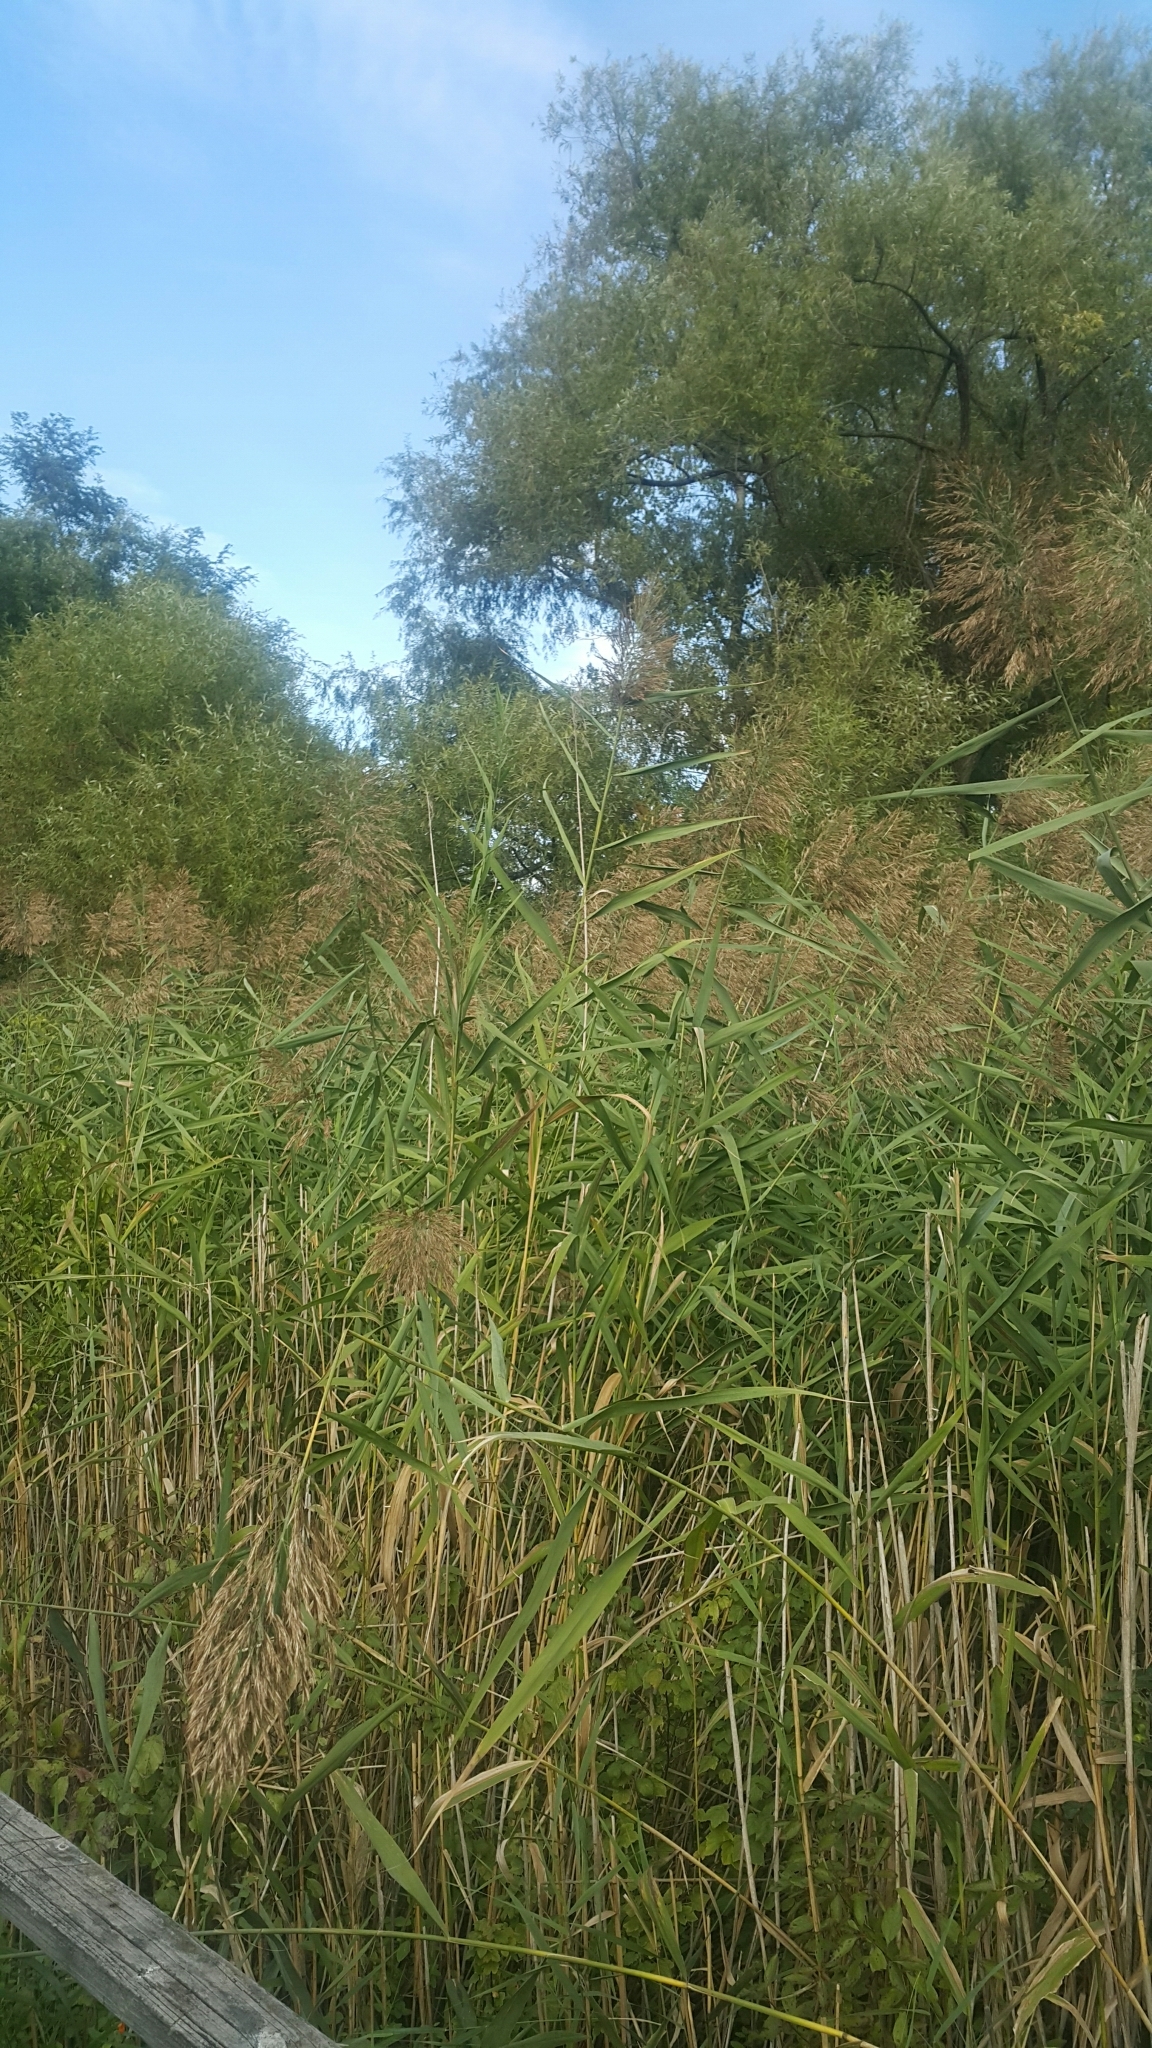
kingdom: Plantae
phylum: Tracheophyta
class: Liliopsida
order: Poales
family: Poaceae
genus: Phragmites
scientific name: Phragmites australis
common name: Common reed
